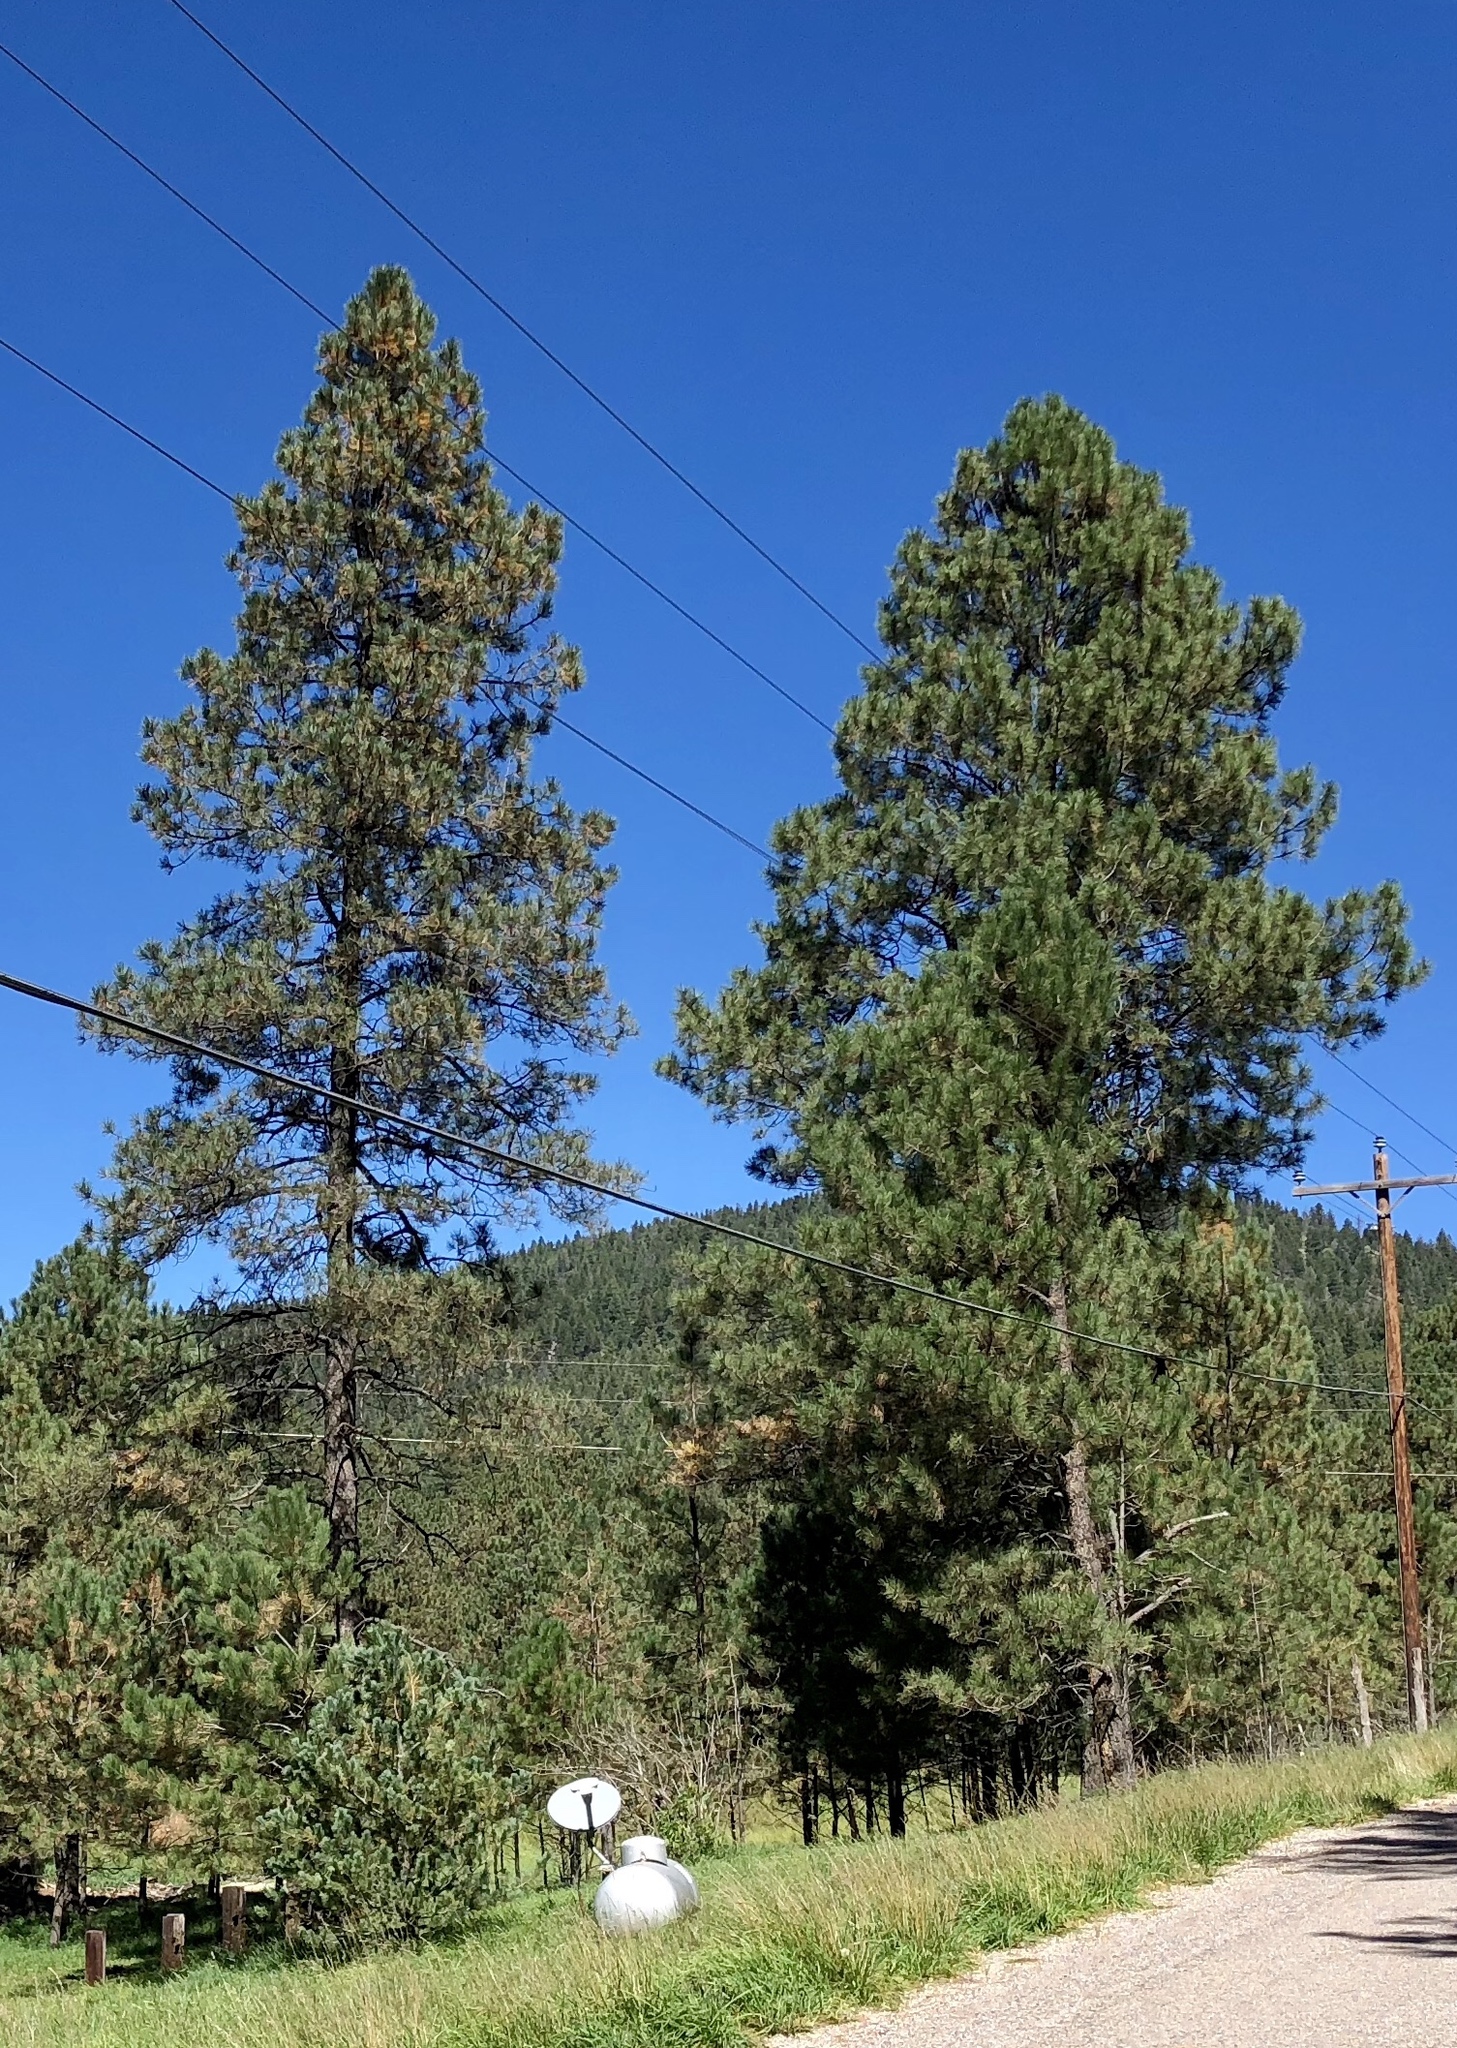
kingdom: Plantae
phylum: Tracheophyta
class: Pinopsida
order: Pinales
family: Pinaceae
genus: Pinus
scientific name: Pinus ponderosa
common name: Western yellow-pine
